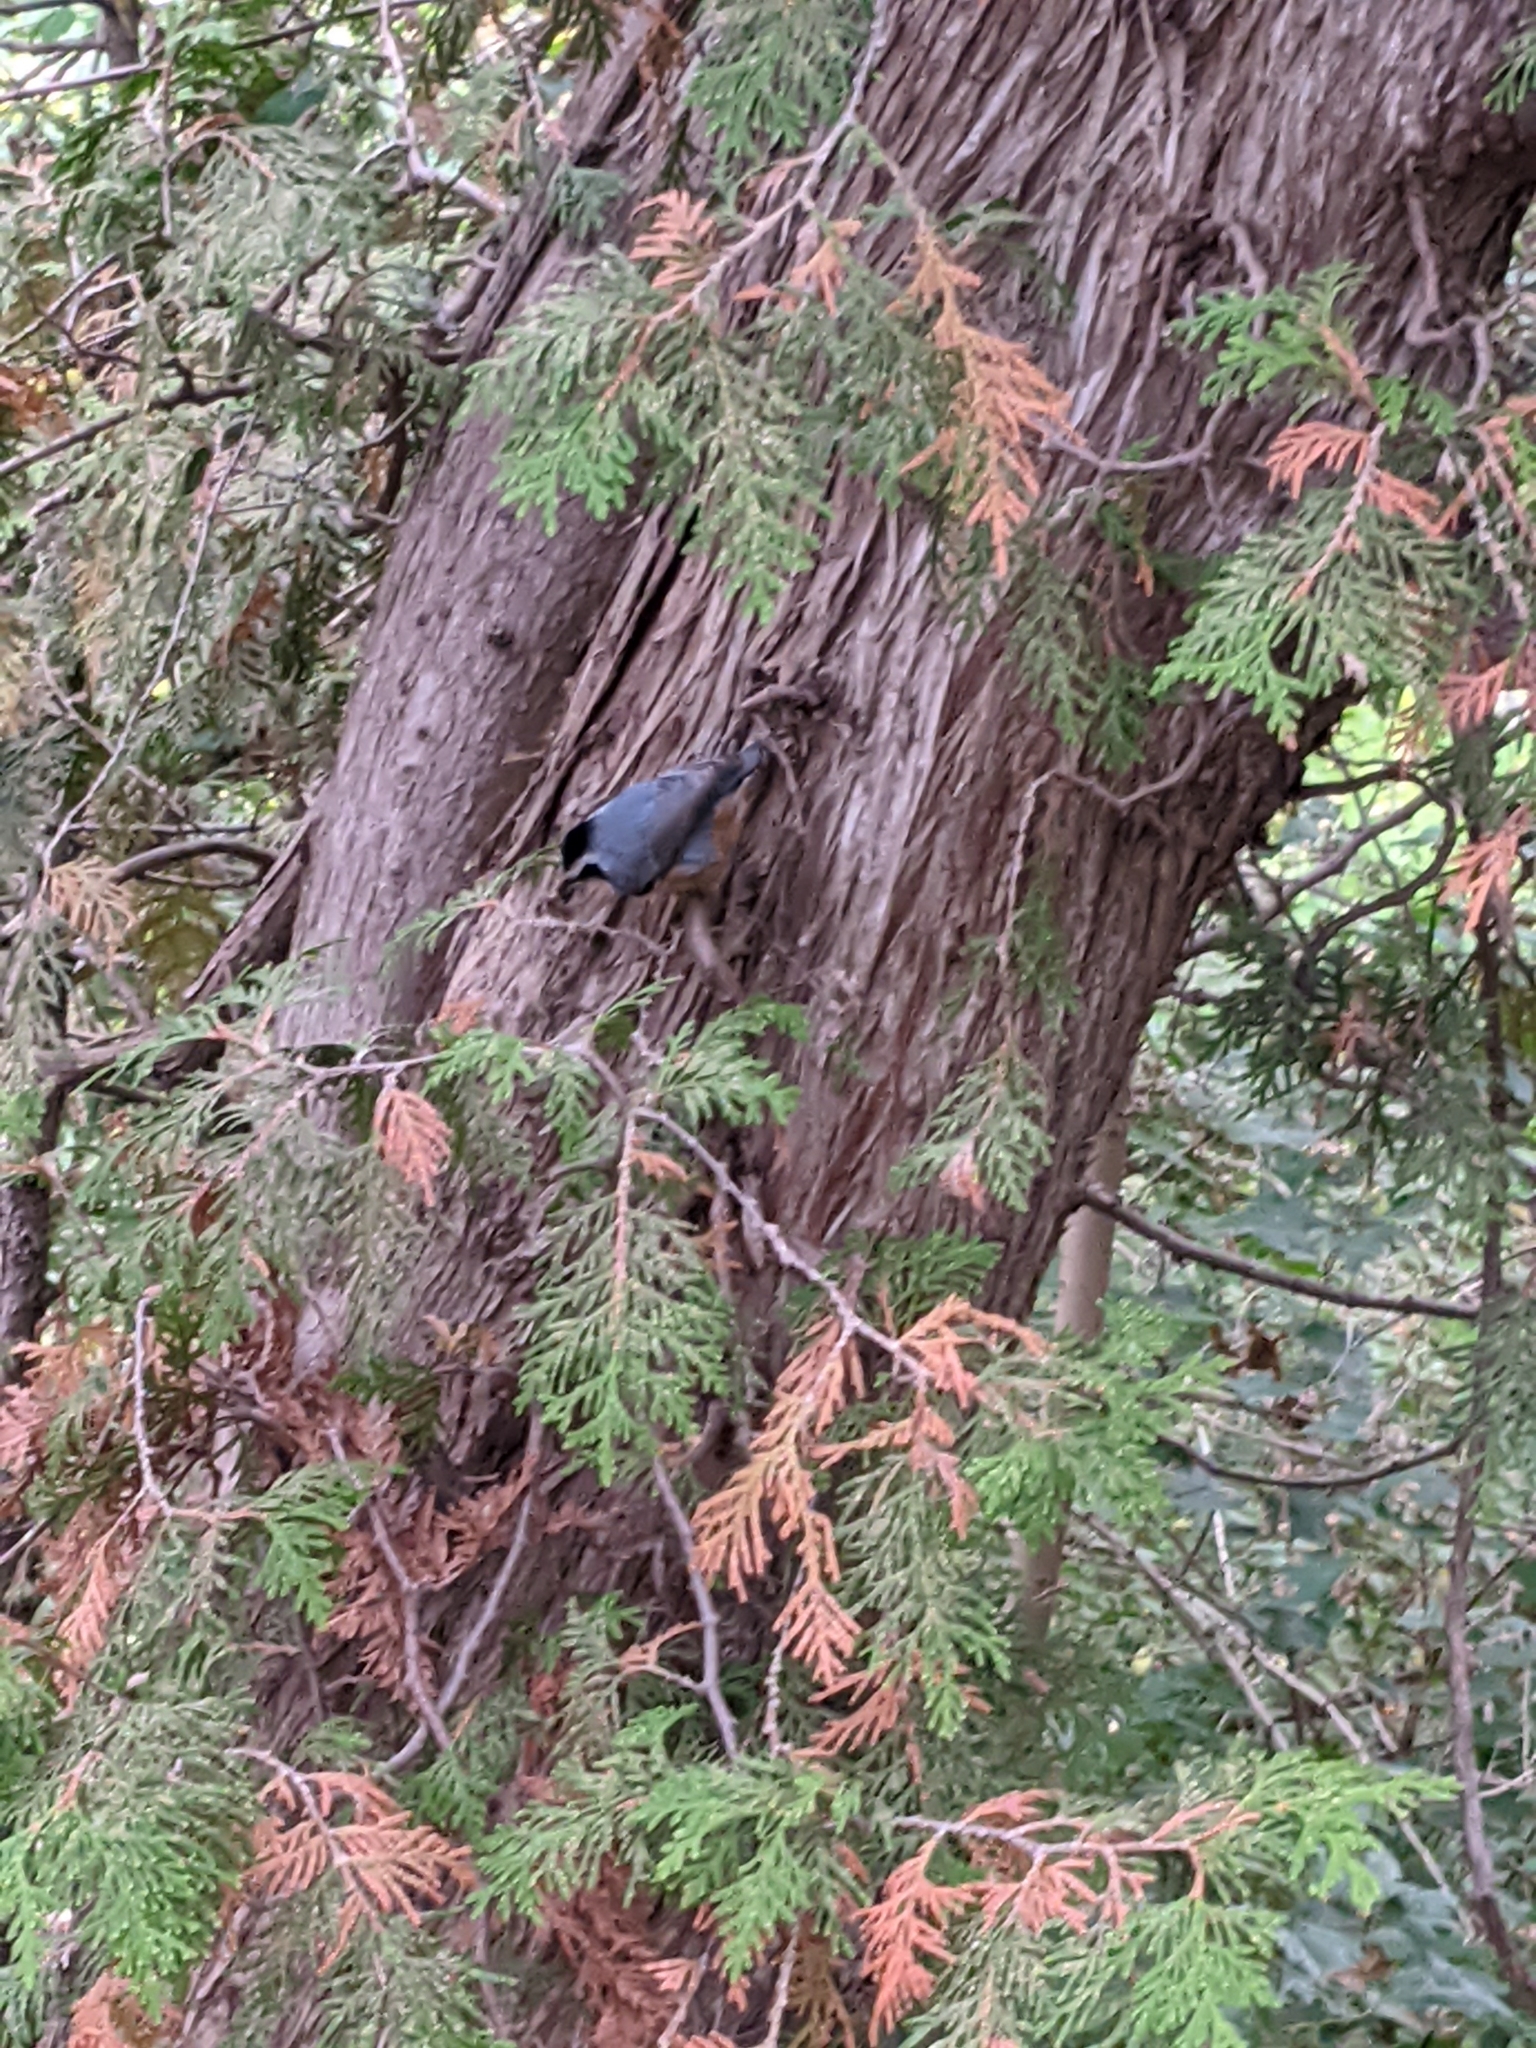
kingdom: Animalia
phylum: Chordata
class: Aves
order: Passeriformes
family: Sittidae
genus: Sitta
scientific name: Sitta canadensis
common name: Red-breasted nuthatch
